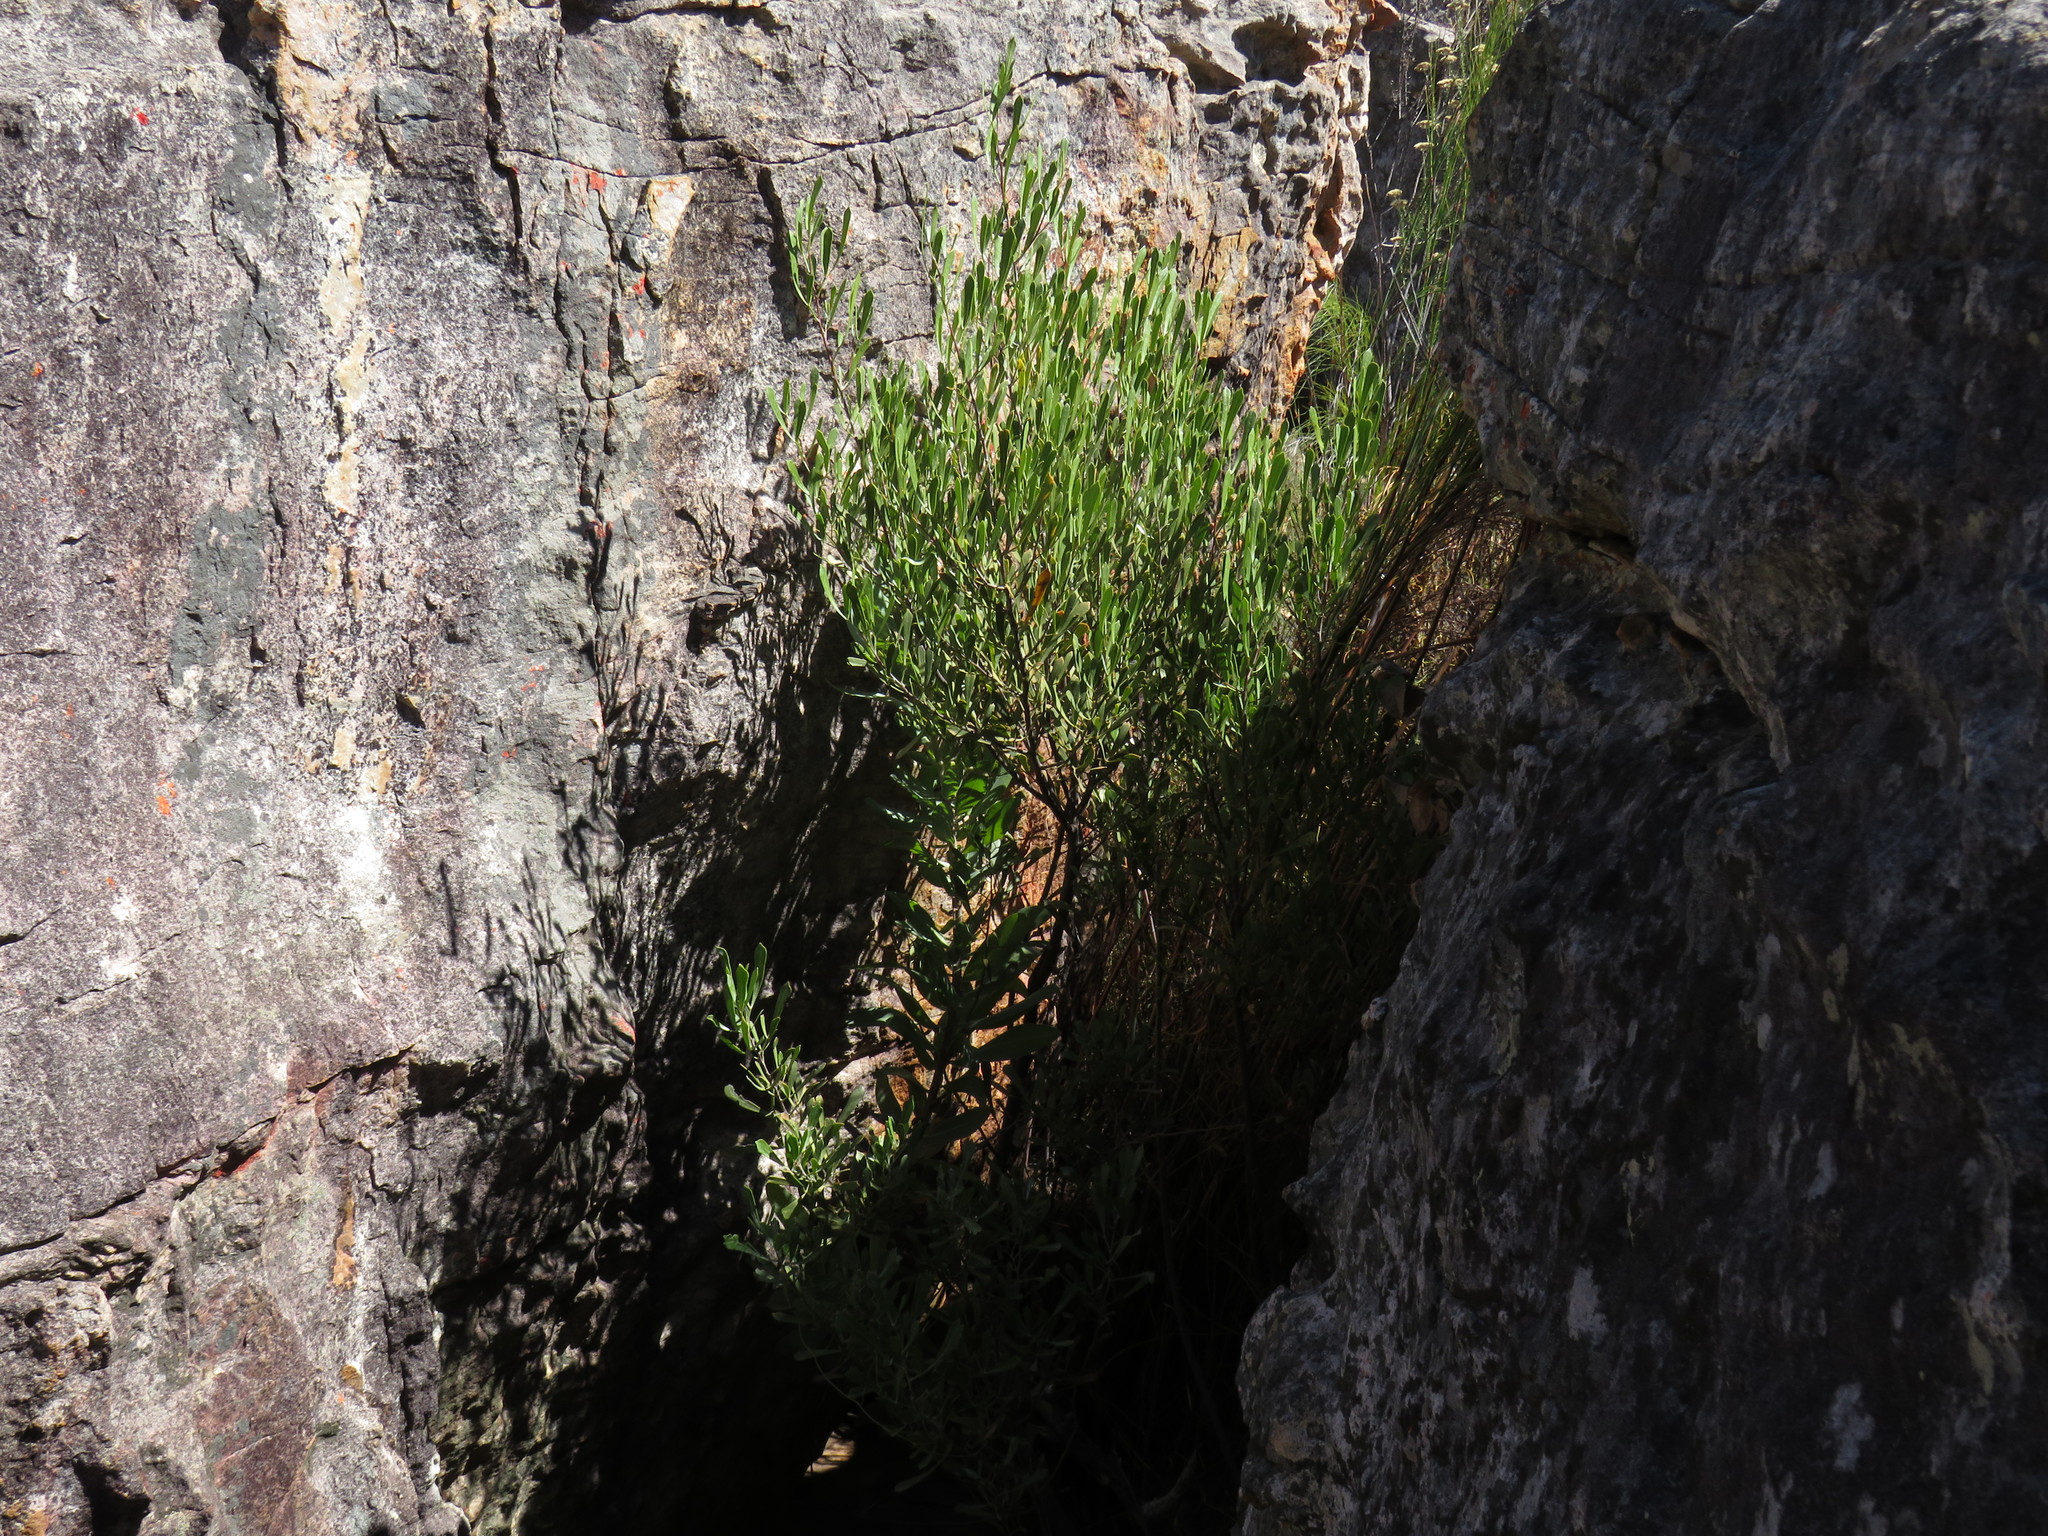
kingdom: Plantae
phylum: Tracheophyta
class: Magnoliopsida
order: Sapindales
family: Anacardiaceae
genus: Searsia
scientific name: Searsia rimosa
